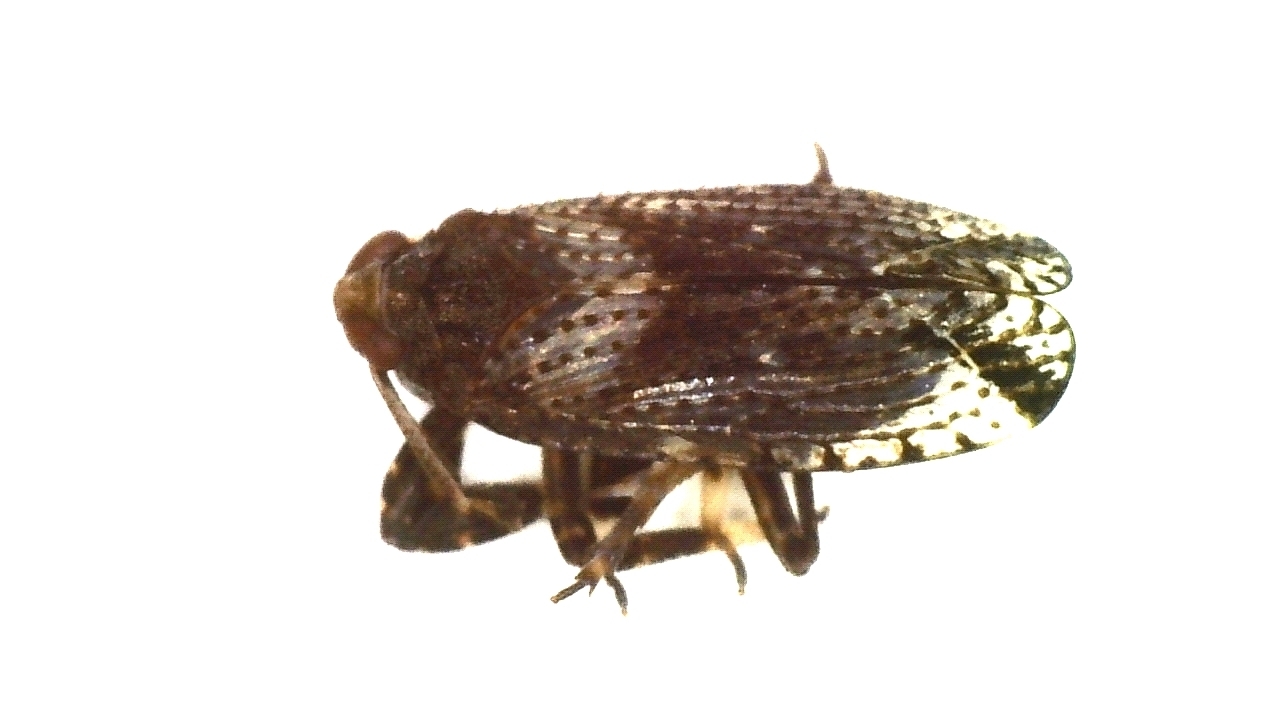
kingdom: Animalia
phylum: Arthropoda
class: Insecta
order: Hemiptera
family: Delphacidae
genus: Asiraca
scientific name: Asiraca clavicornis
